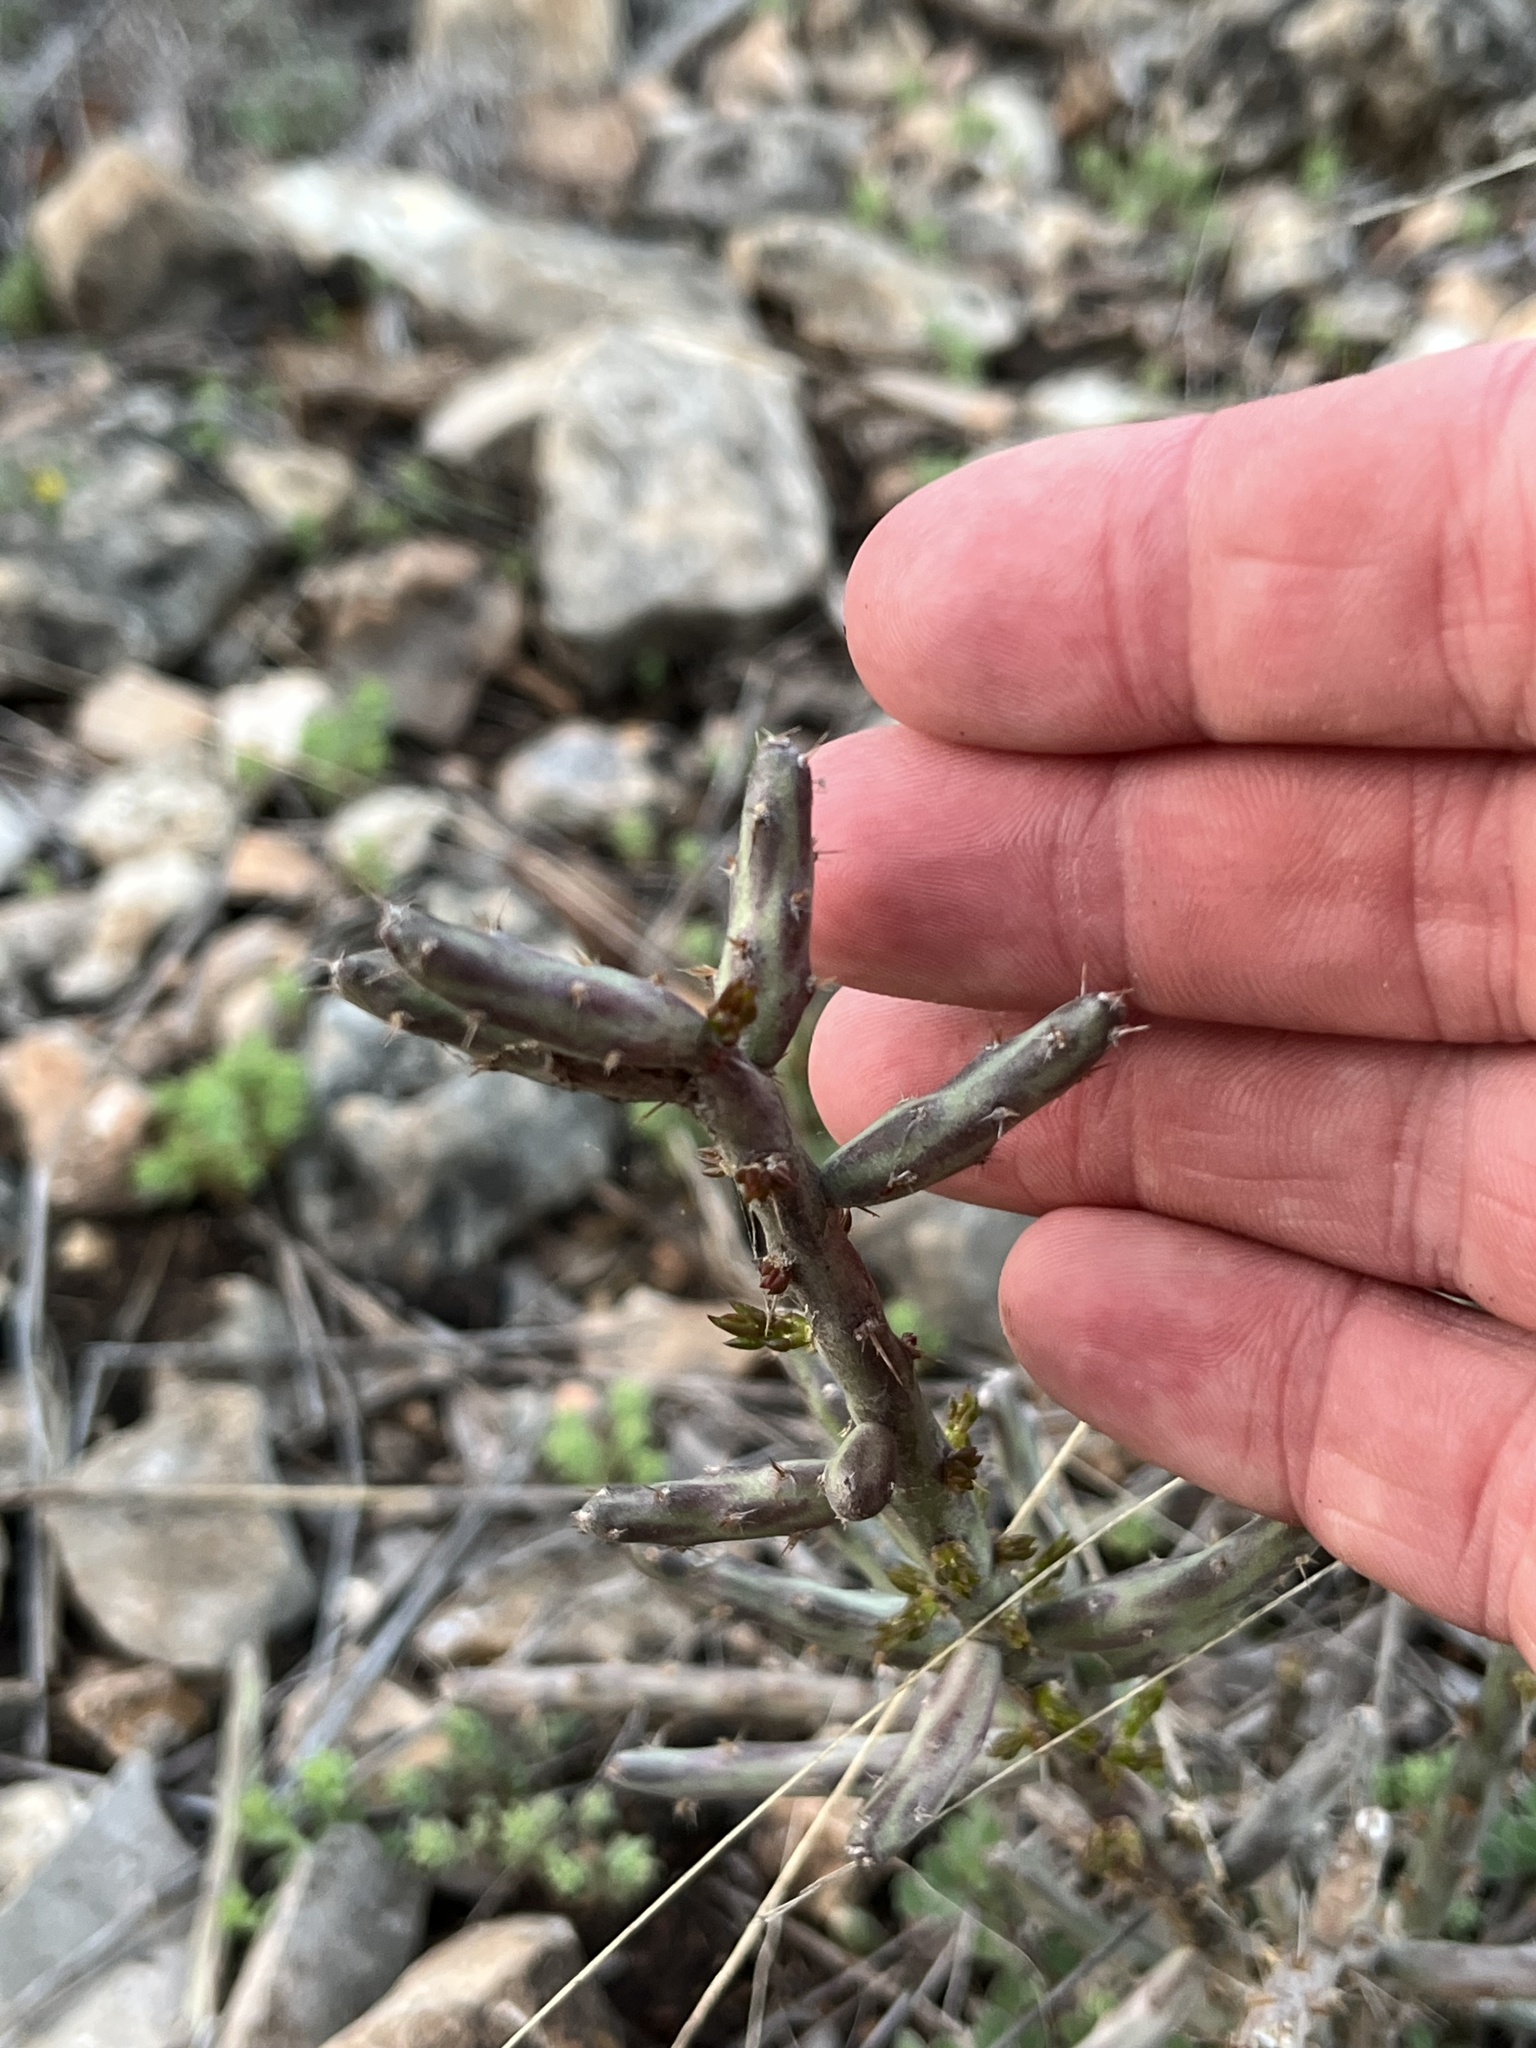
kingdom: Plantae
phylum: Tracheophyta
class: Magnoliopsida
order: Caryophyllales
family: Cactaceae
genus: Cylindropuntia
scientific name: Cylindropuntia leptocaulis
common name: Christmas cactus
